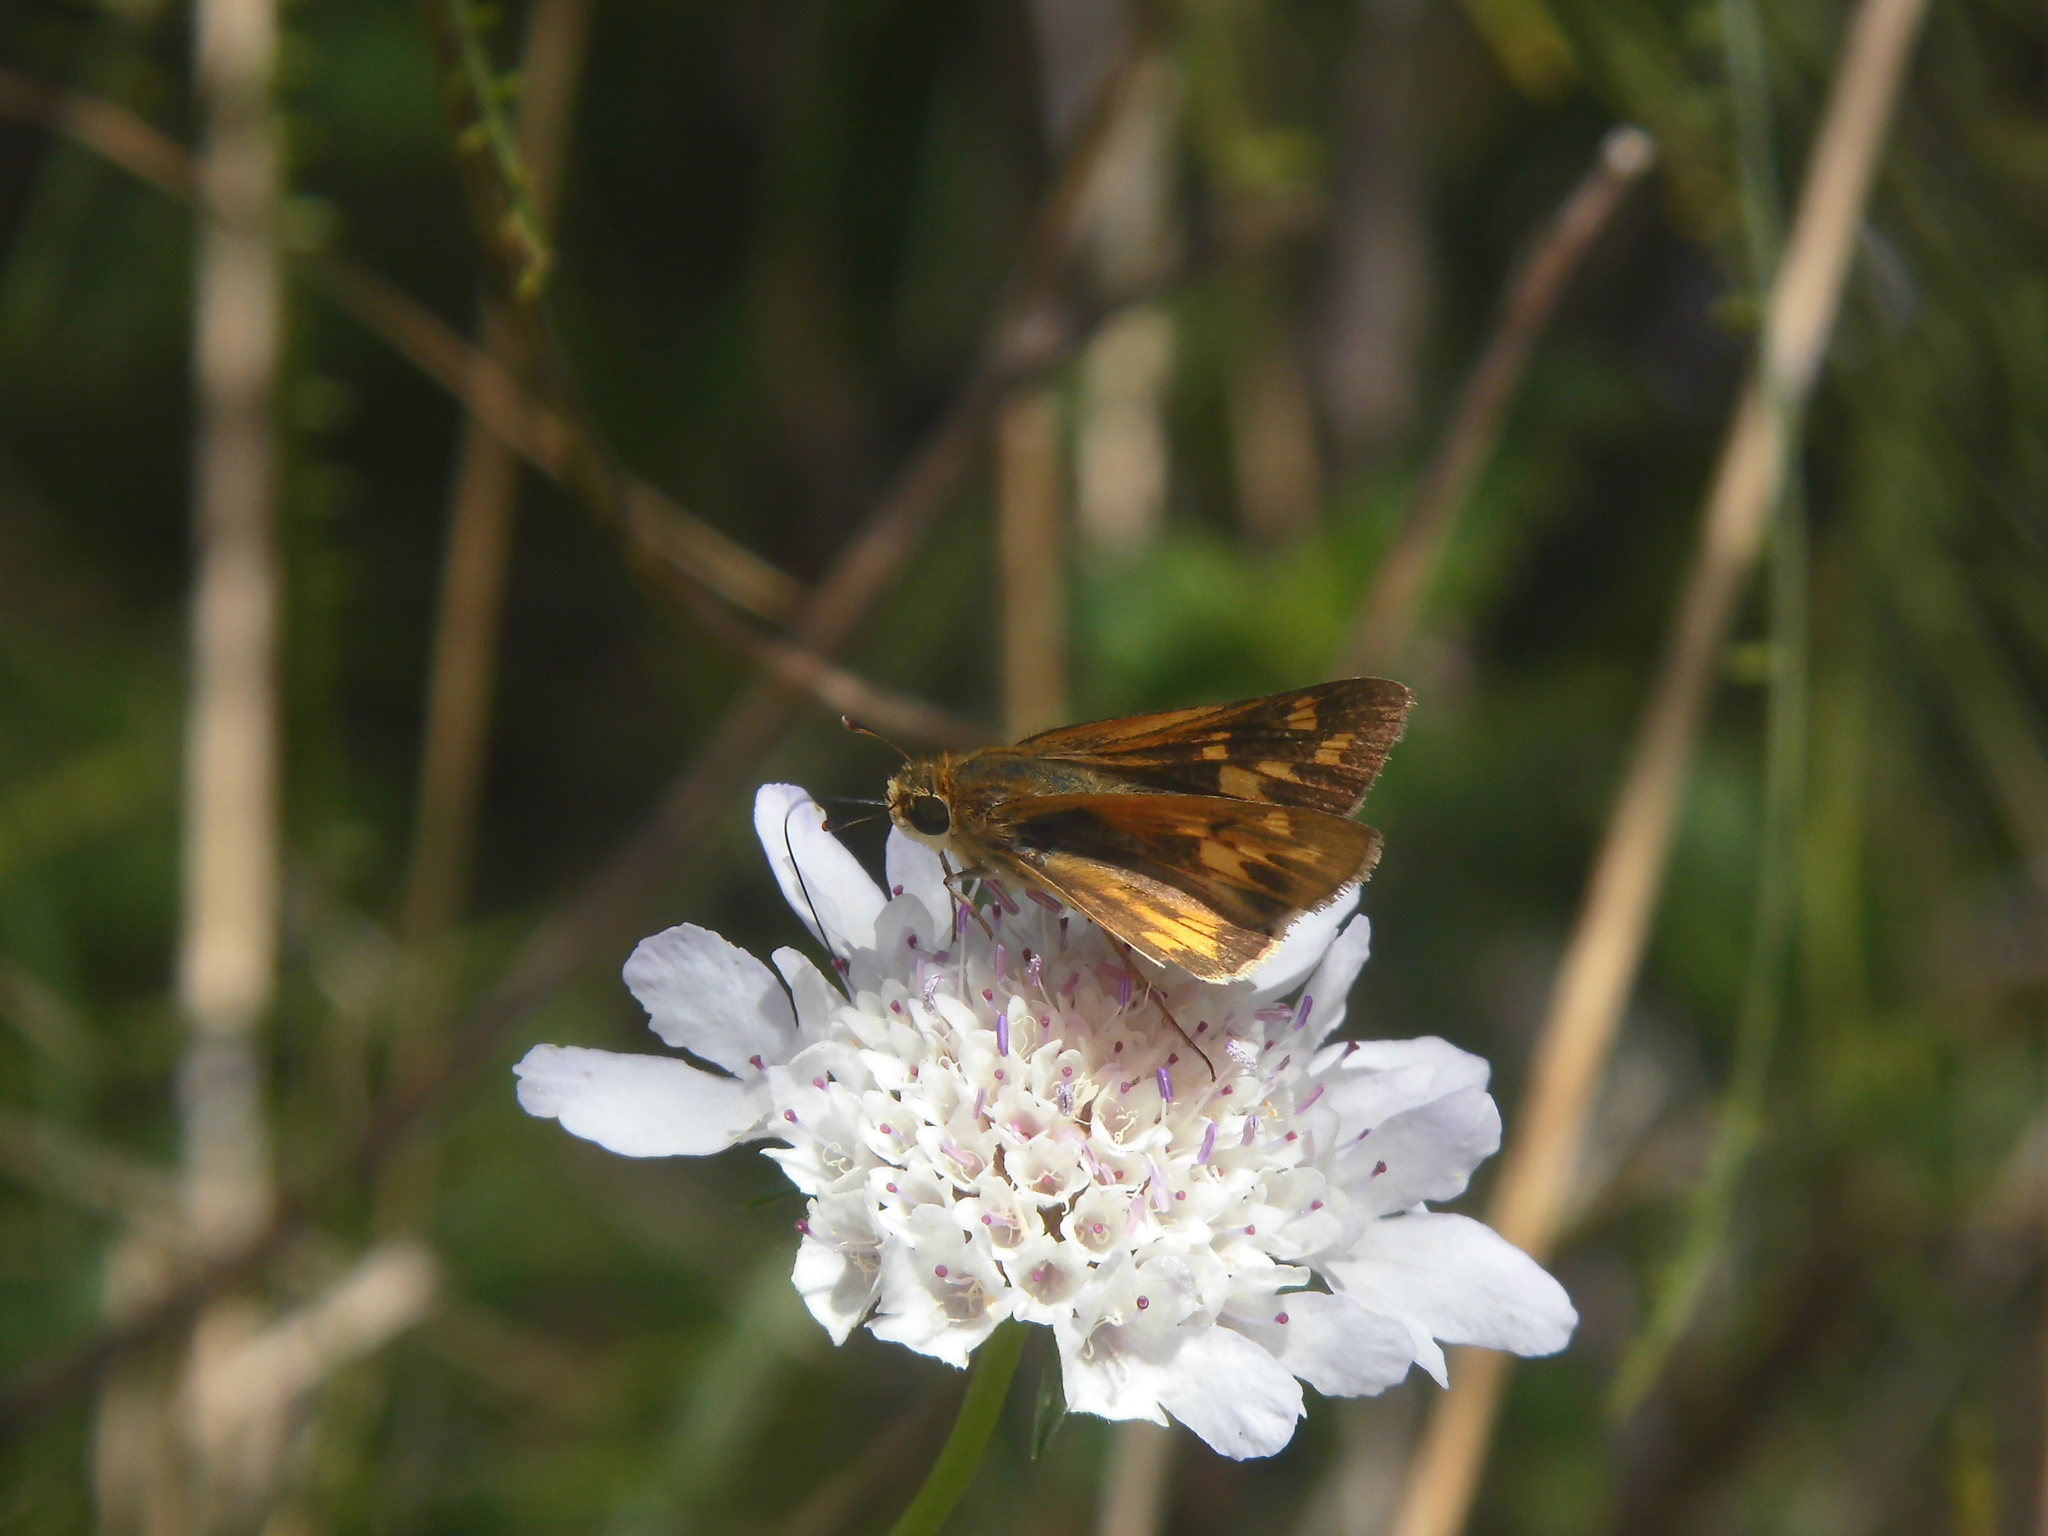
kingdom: Animalia
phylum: Arthropoda
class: Insecta
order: Lepidoptera
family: Hesperiidae
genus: Hylephila
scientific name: Hylephila phyleus
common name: Fiery skipper
